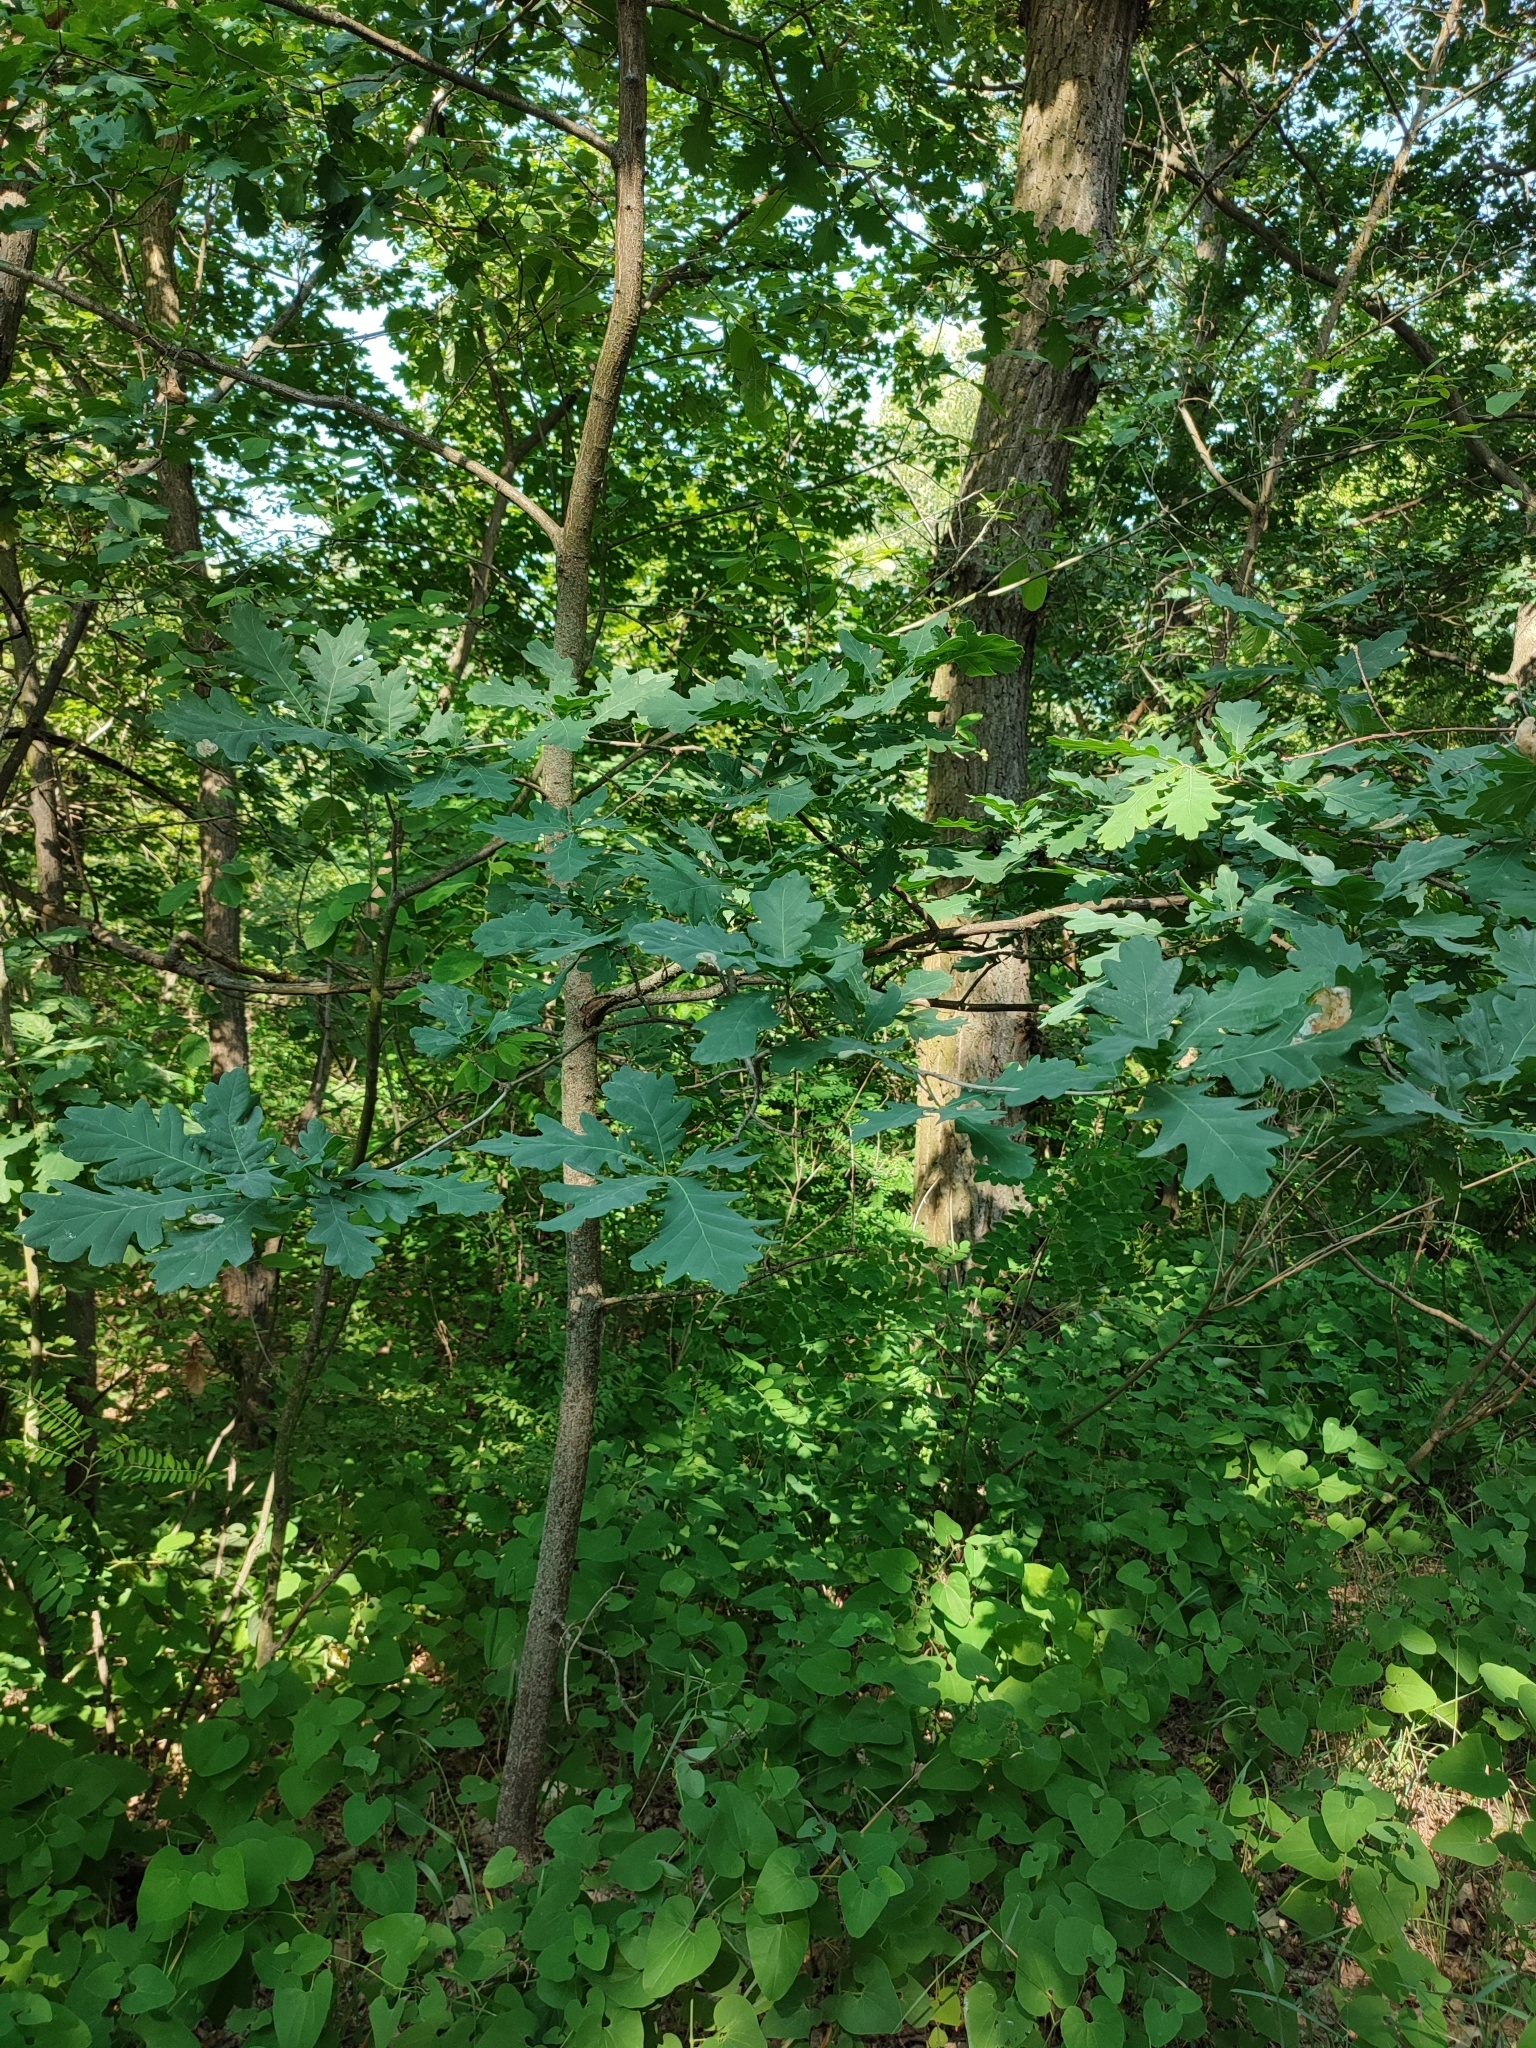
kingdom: Plantae
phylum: Tracheophyta
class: Magnoliopsida
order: Fagales
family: Fagaceae
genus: Quercus
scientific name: Quercus robur
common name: Pedunculate oak
